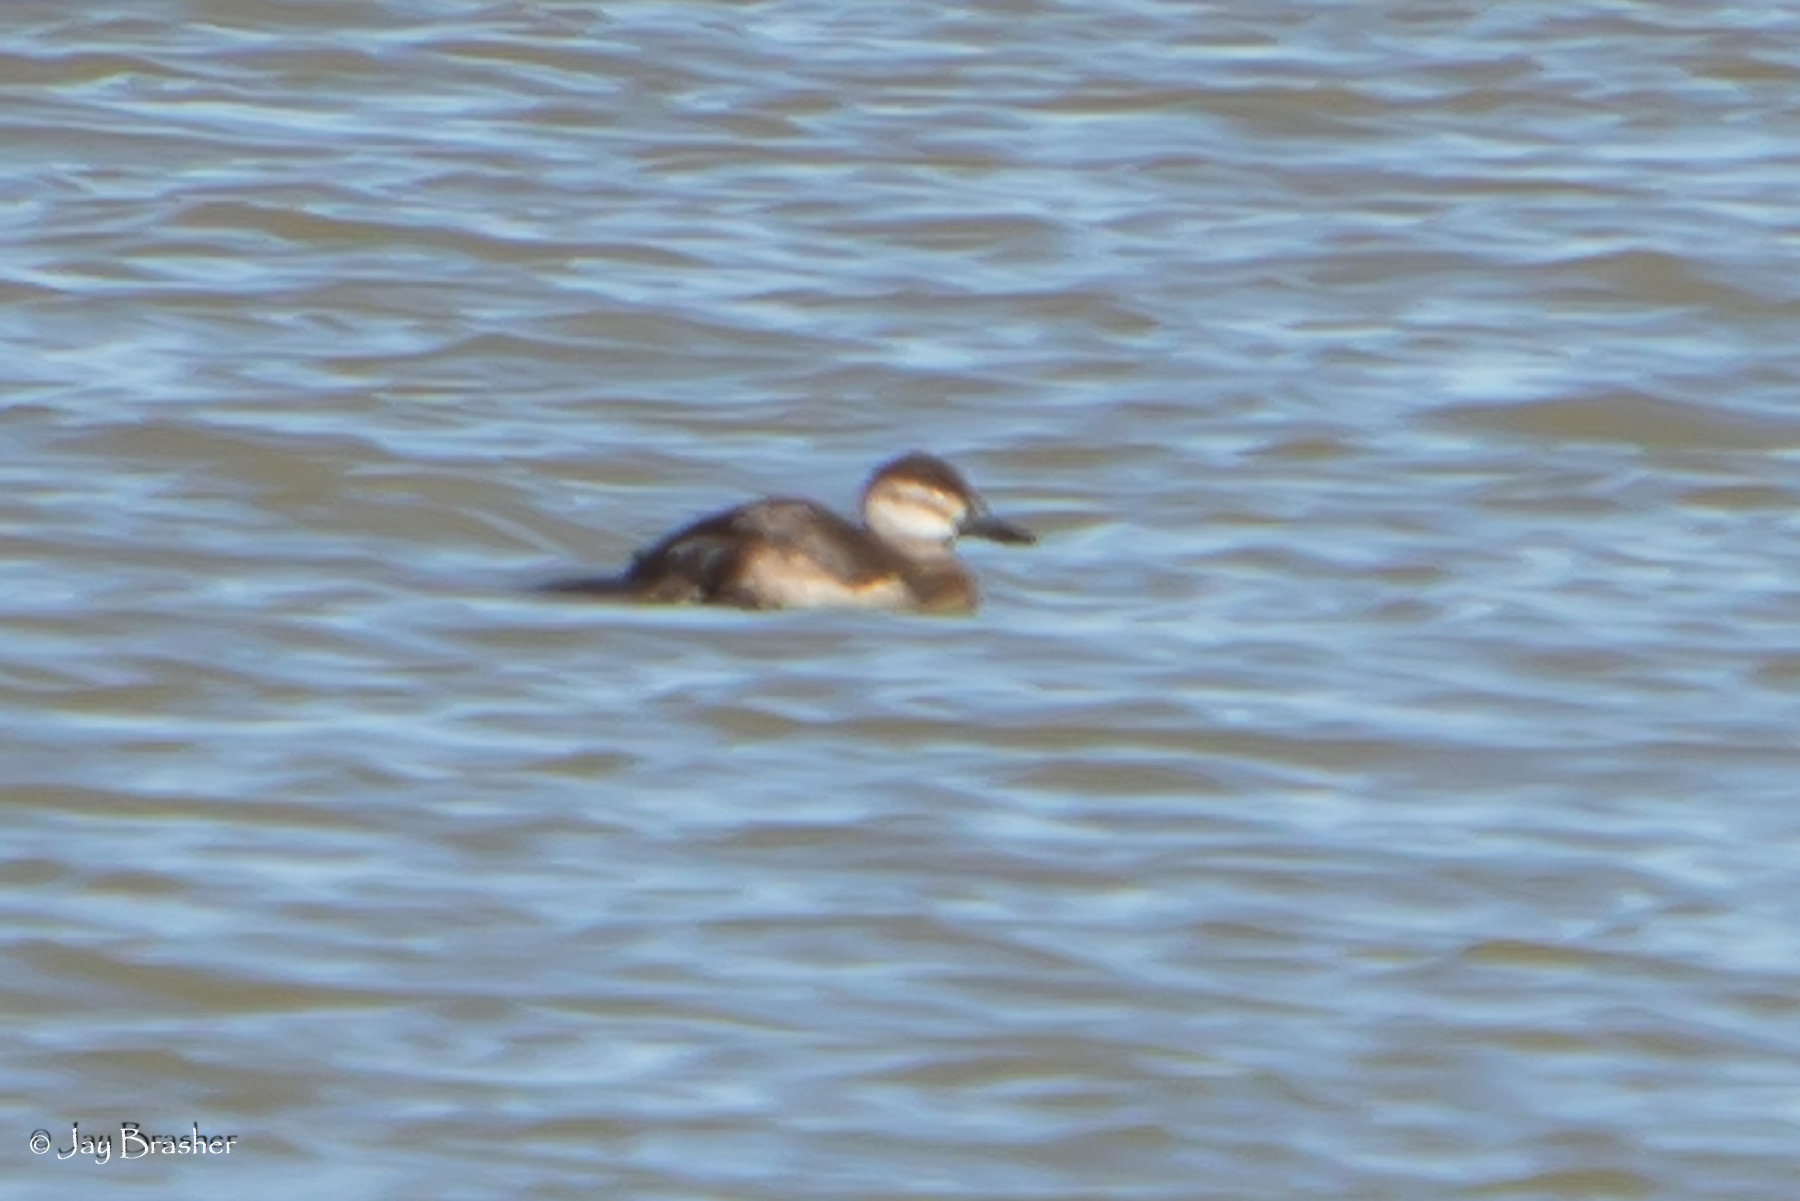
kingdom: Animalia
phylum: Chordata
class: Aves
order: Anseriformes
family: Anatidae
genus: Oxyura
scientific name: Oxyura jamaicensis
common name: Ruddy duck
